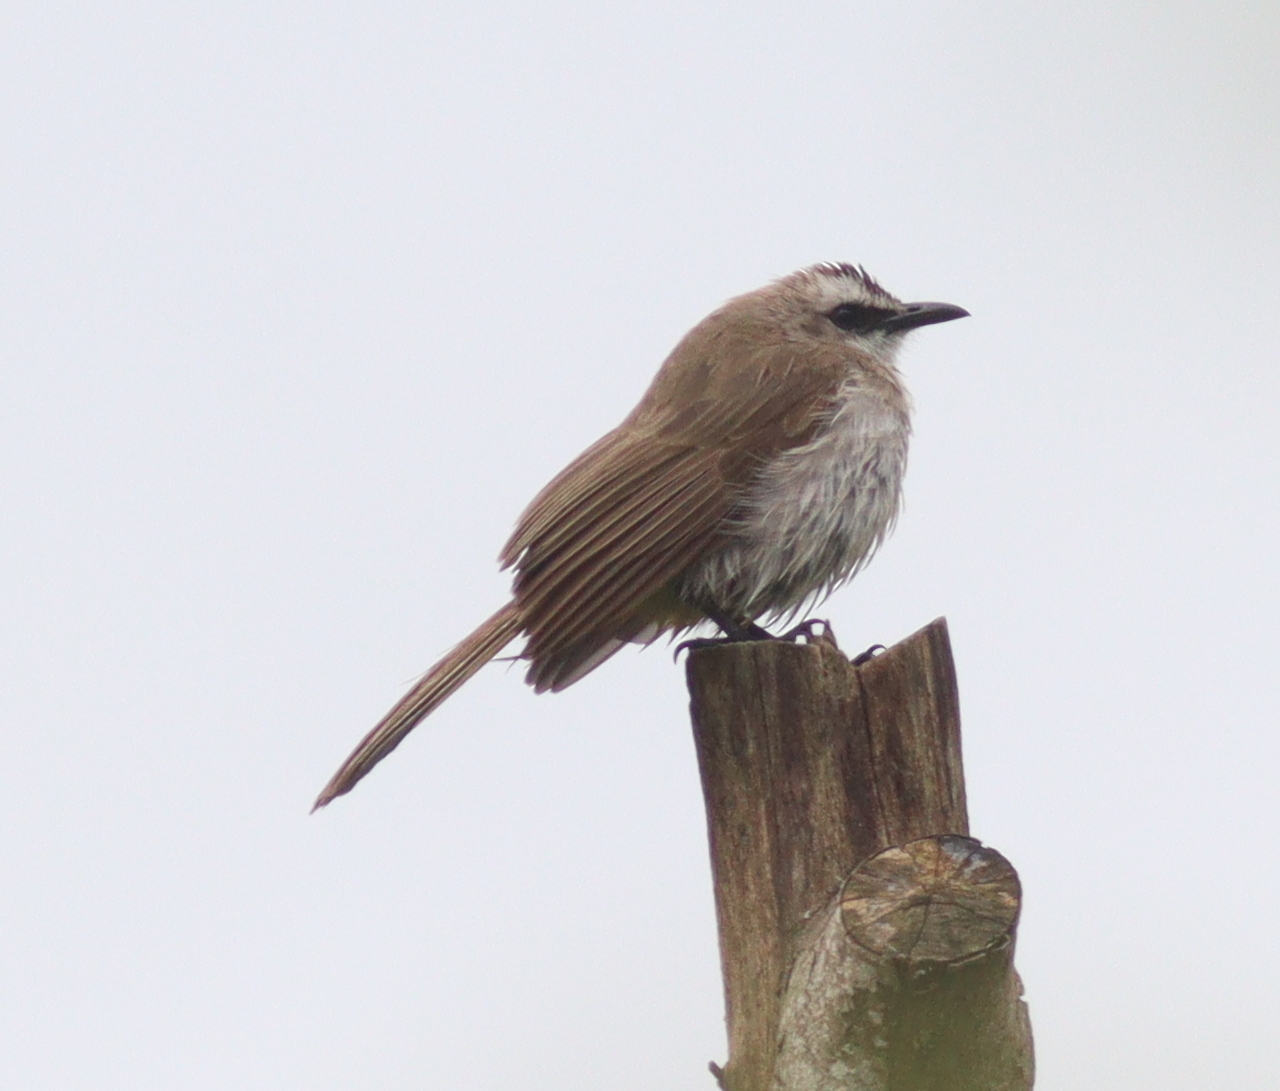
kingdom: Animalia
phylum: Chordata
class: Aves
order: Passeriformes
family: Pycnonotidae
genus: Pycnonotus
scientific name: Pycnonotus goiavier
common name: Yellow-vented bulbul
